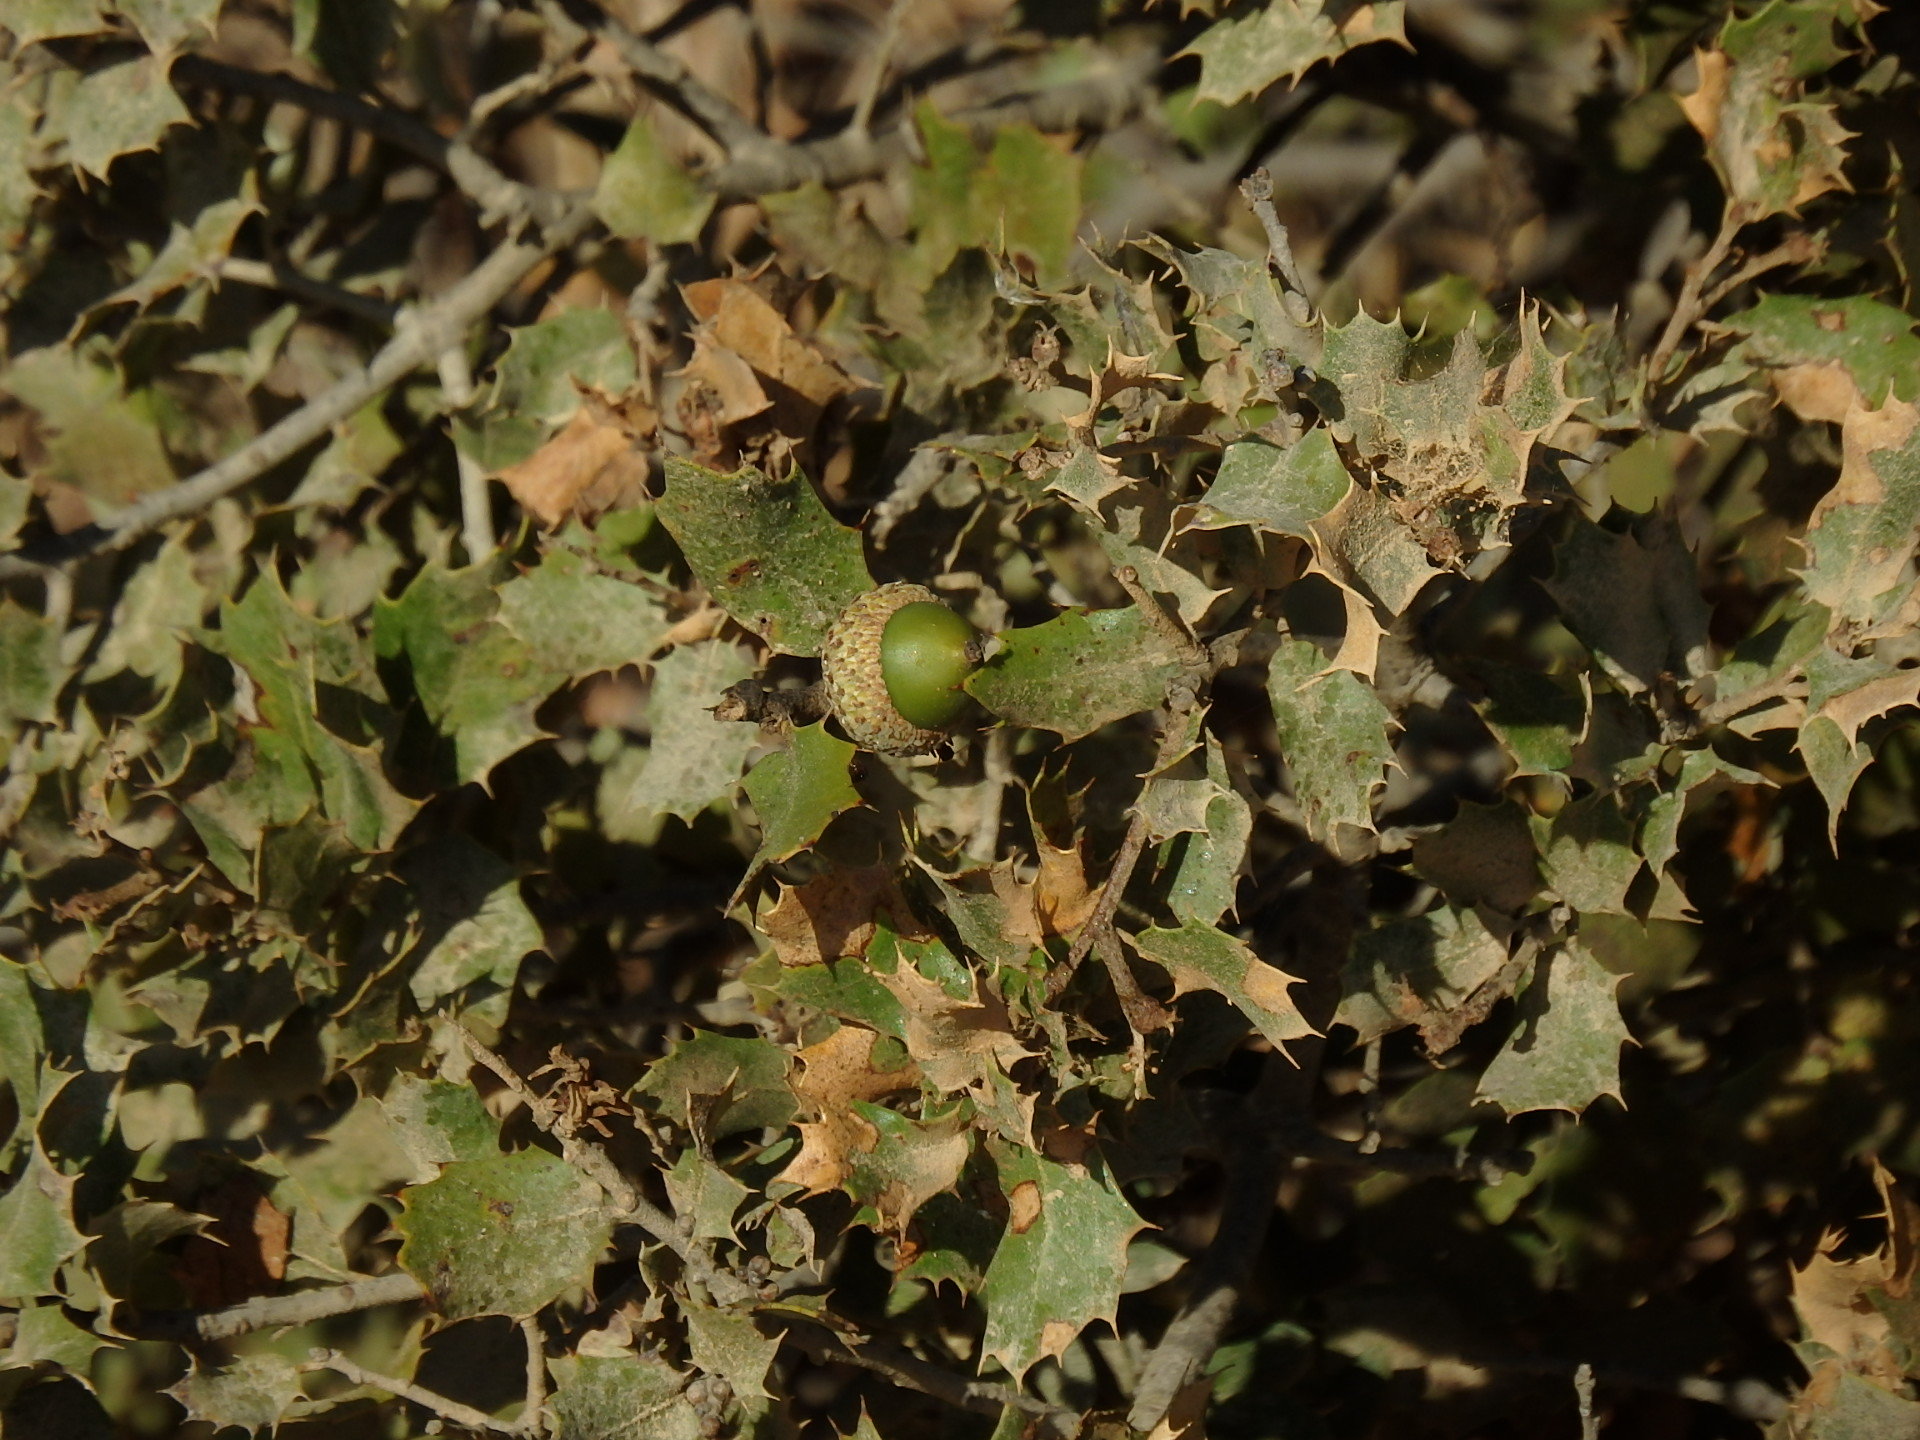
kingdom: Plantae
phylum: Tracheophyta
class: Magnoliopsida
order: Fagales
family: Fagaceae
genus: Quercus
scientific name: Quercus coccifera
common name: Kermes oak
